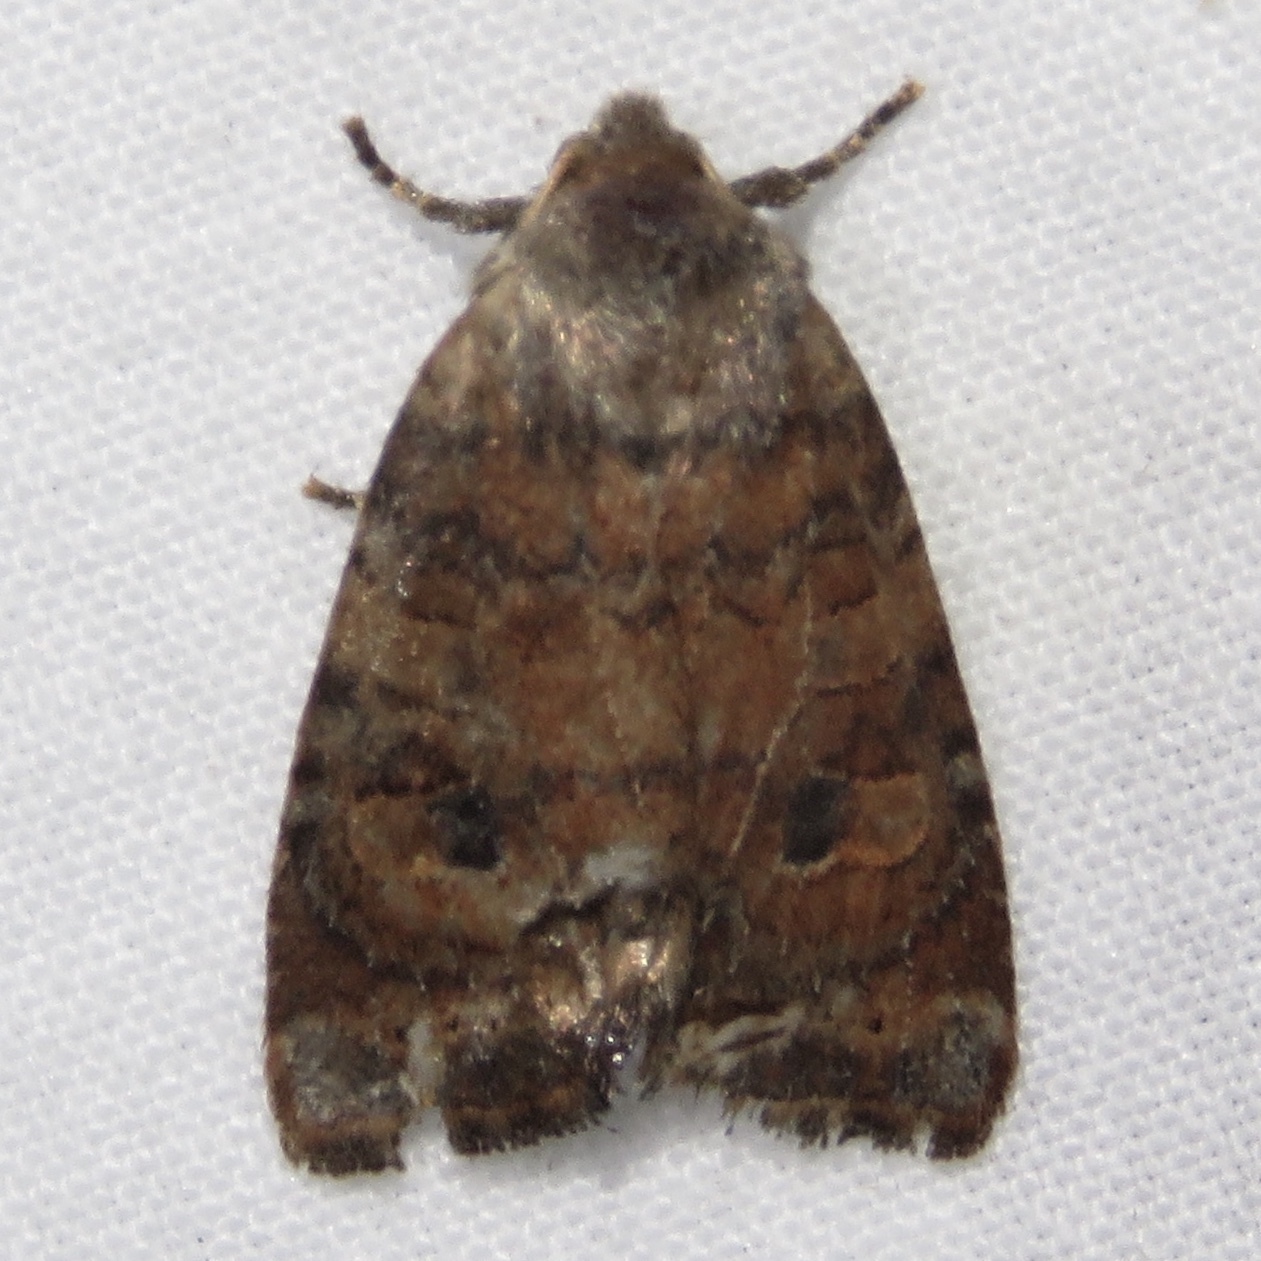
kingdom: Animalia
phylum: Arthropoda
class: Insecta
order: Lepidoptera
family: Noctuidae
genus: Anathix
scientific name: Anathix puta
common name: Puta sallow
